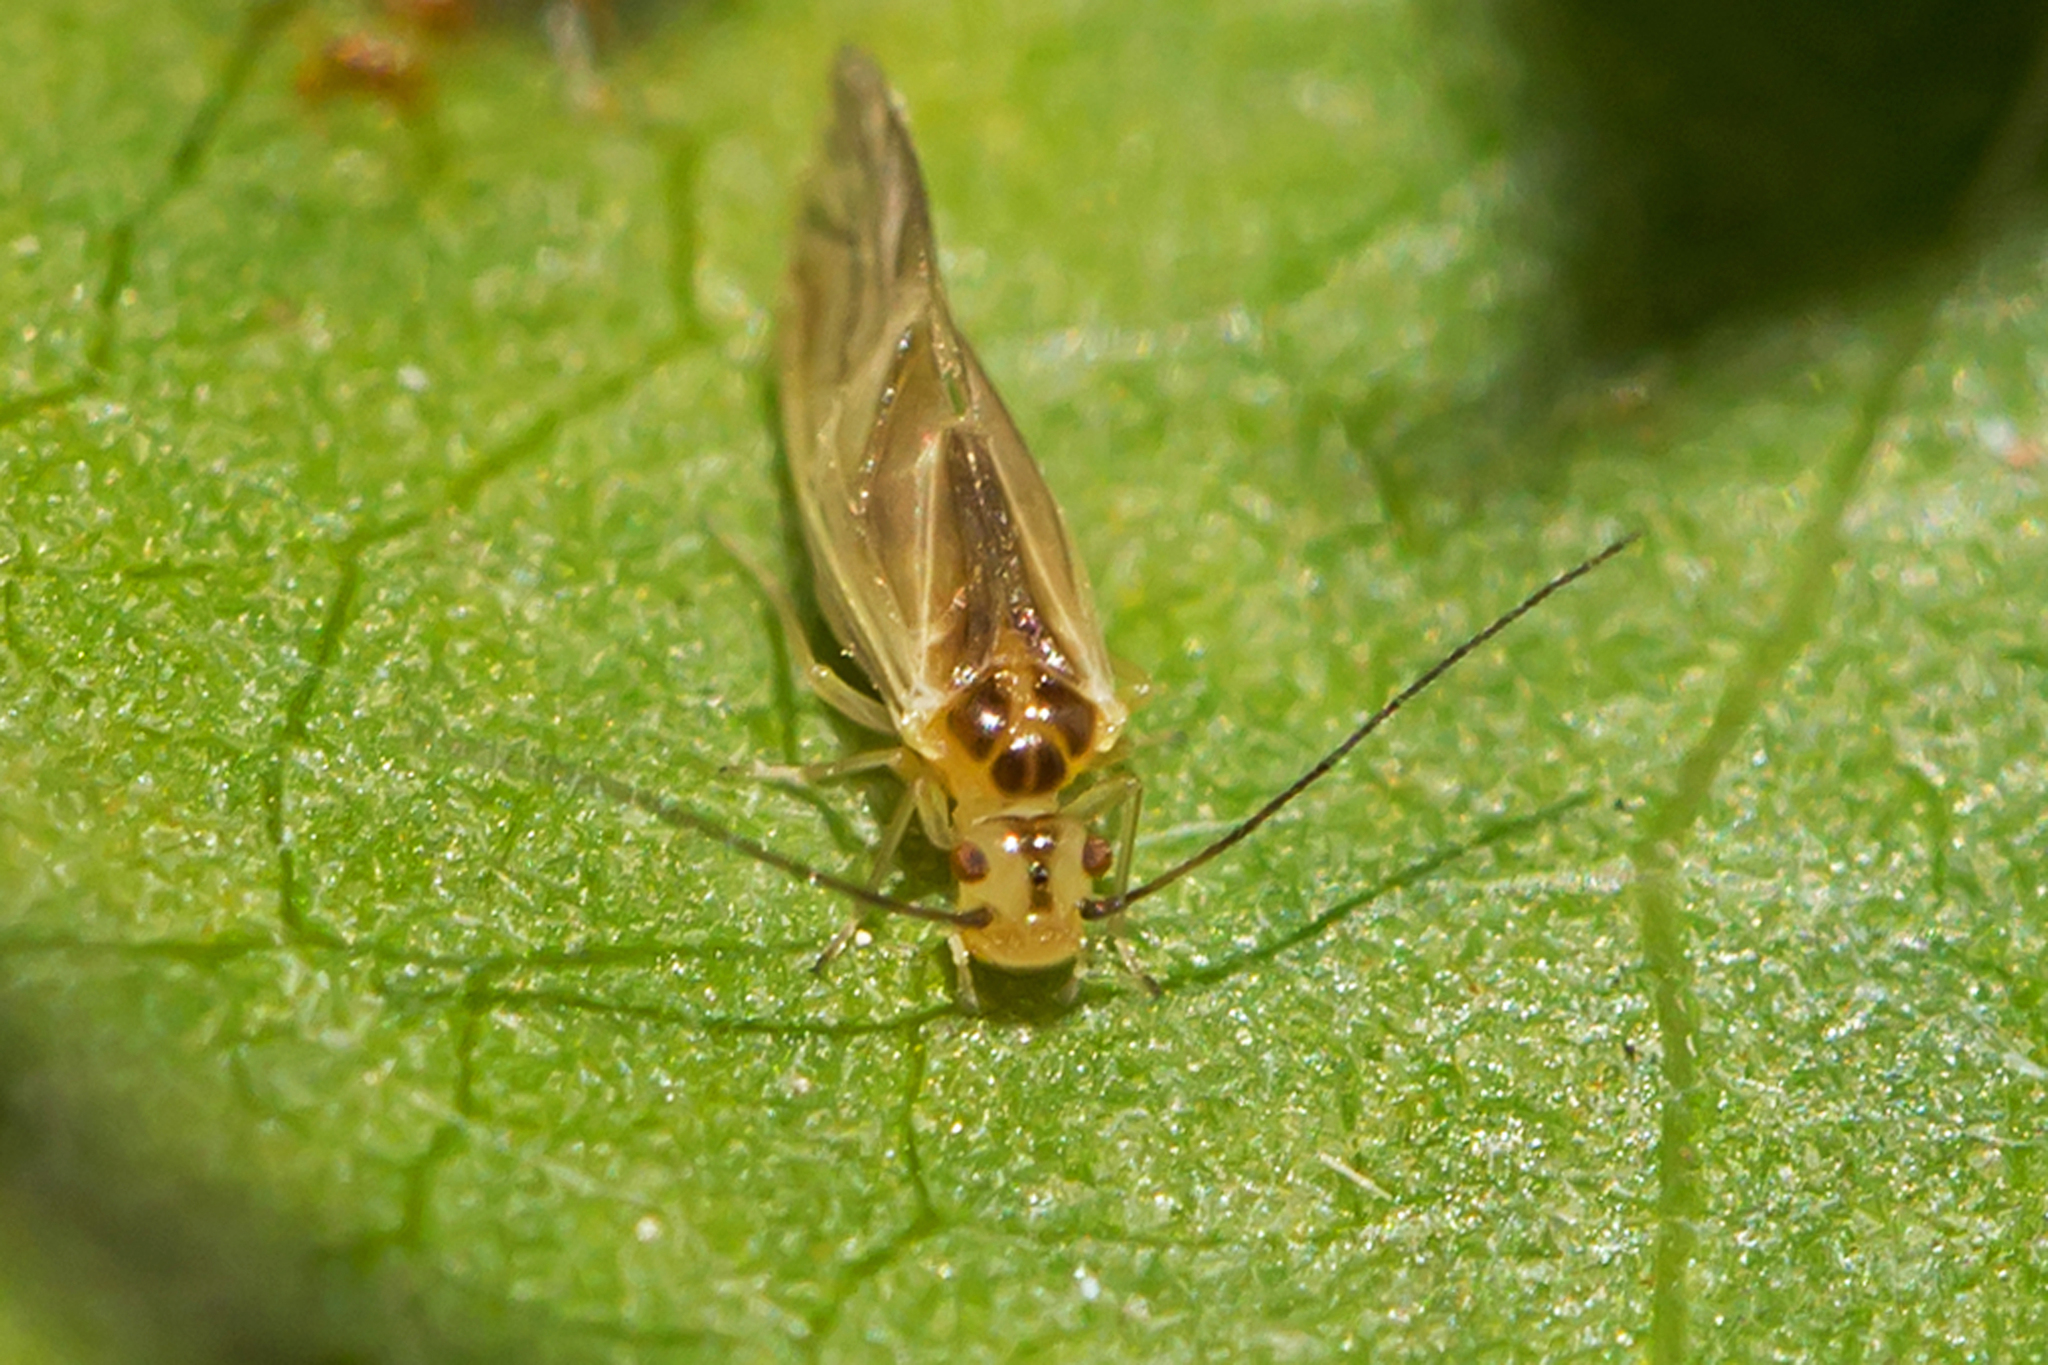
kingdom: Animalia
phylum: Arthropoda
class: Insecta
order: Psocodea
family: Caeciliusidae
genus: Valenzuela
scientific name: Valenzuela flavidus
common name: Yellow barklouse
